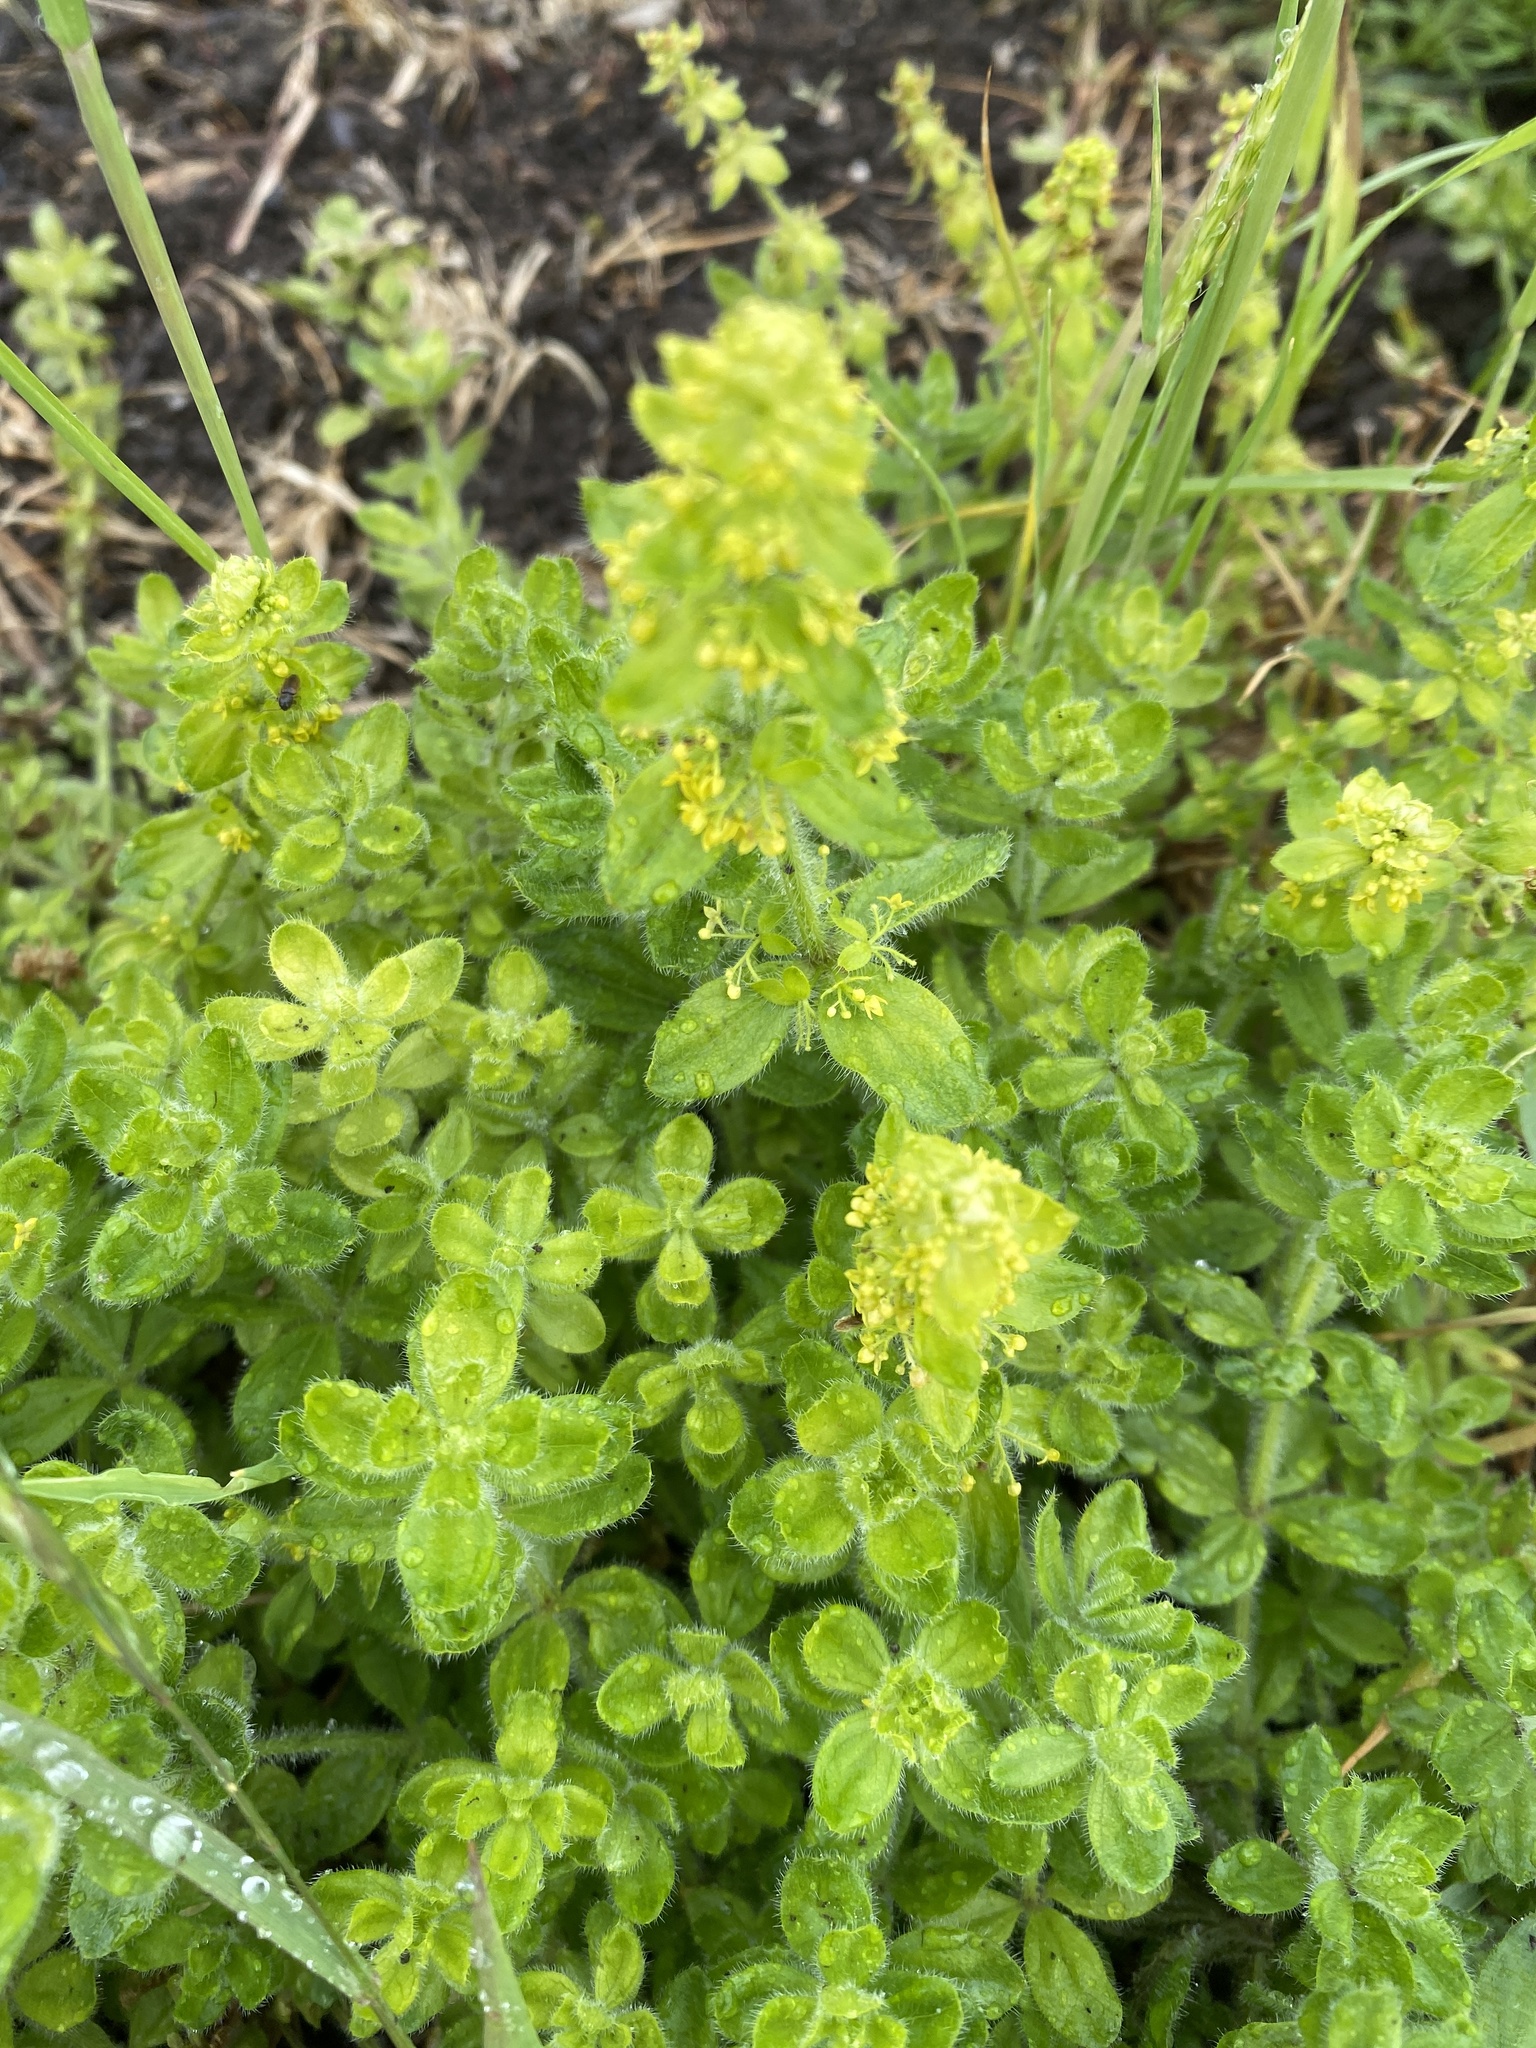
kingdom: Plantae
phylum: Tracheophyta
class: Magnoliopsida
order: Gentianales
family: Rubiaceae
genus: Cruciata
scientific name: Cruciata laevipes
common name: Crosswort
